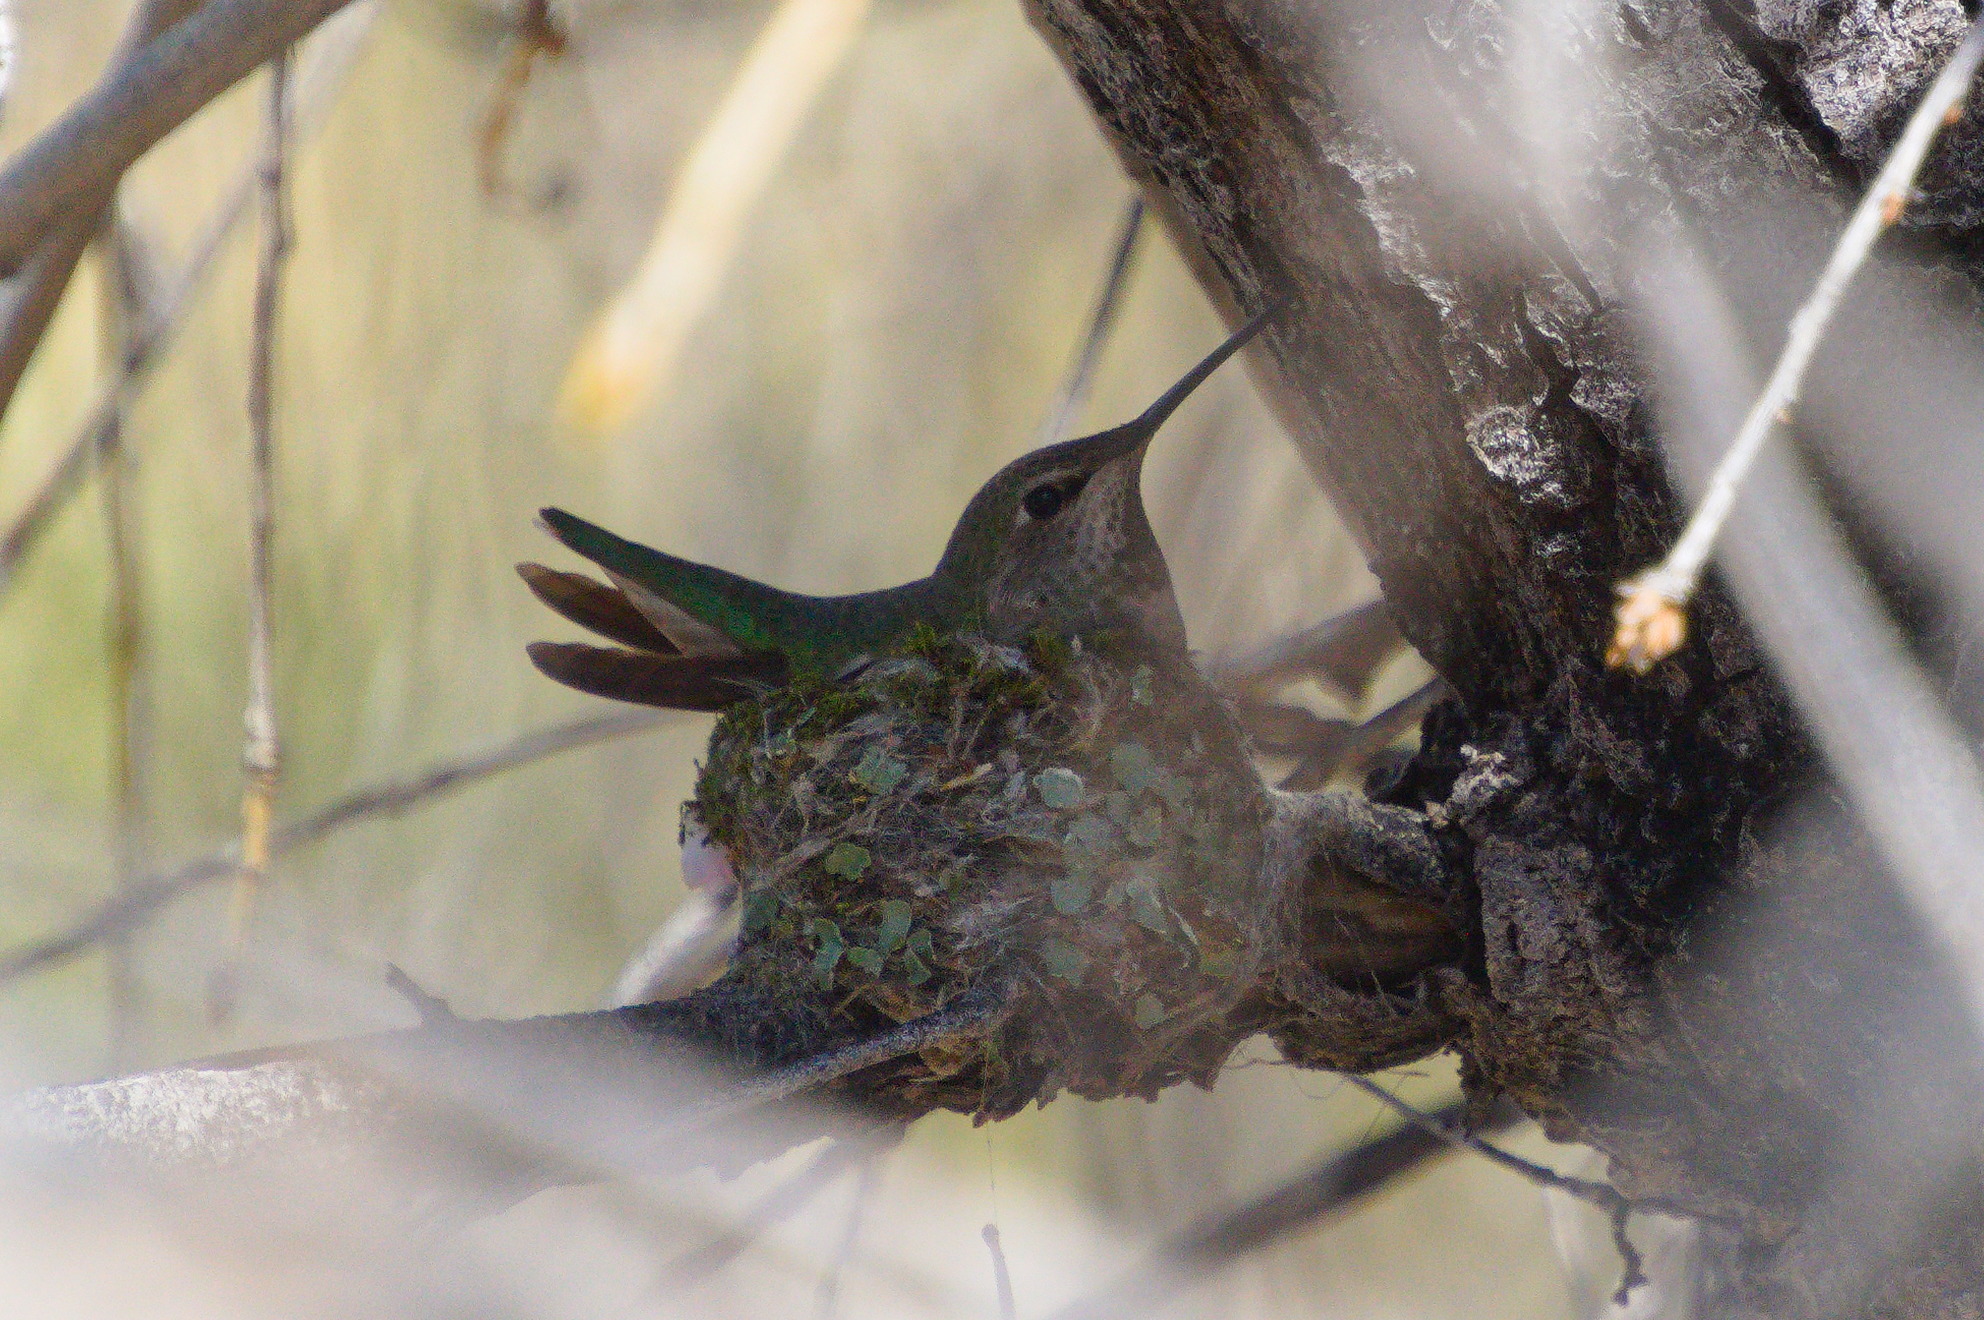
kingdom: Animalia
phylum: Chordata
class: Aves
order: Apodiformes
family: Trochilidae
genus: Calypte
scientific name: Calypte anna
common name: Anna's hummingbird
